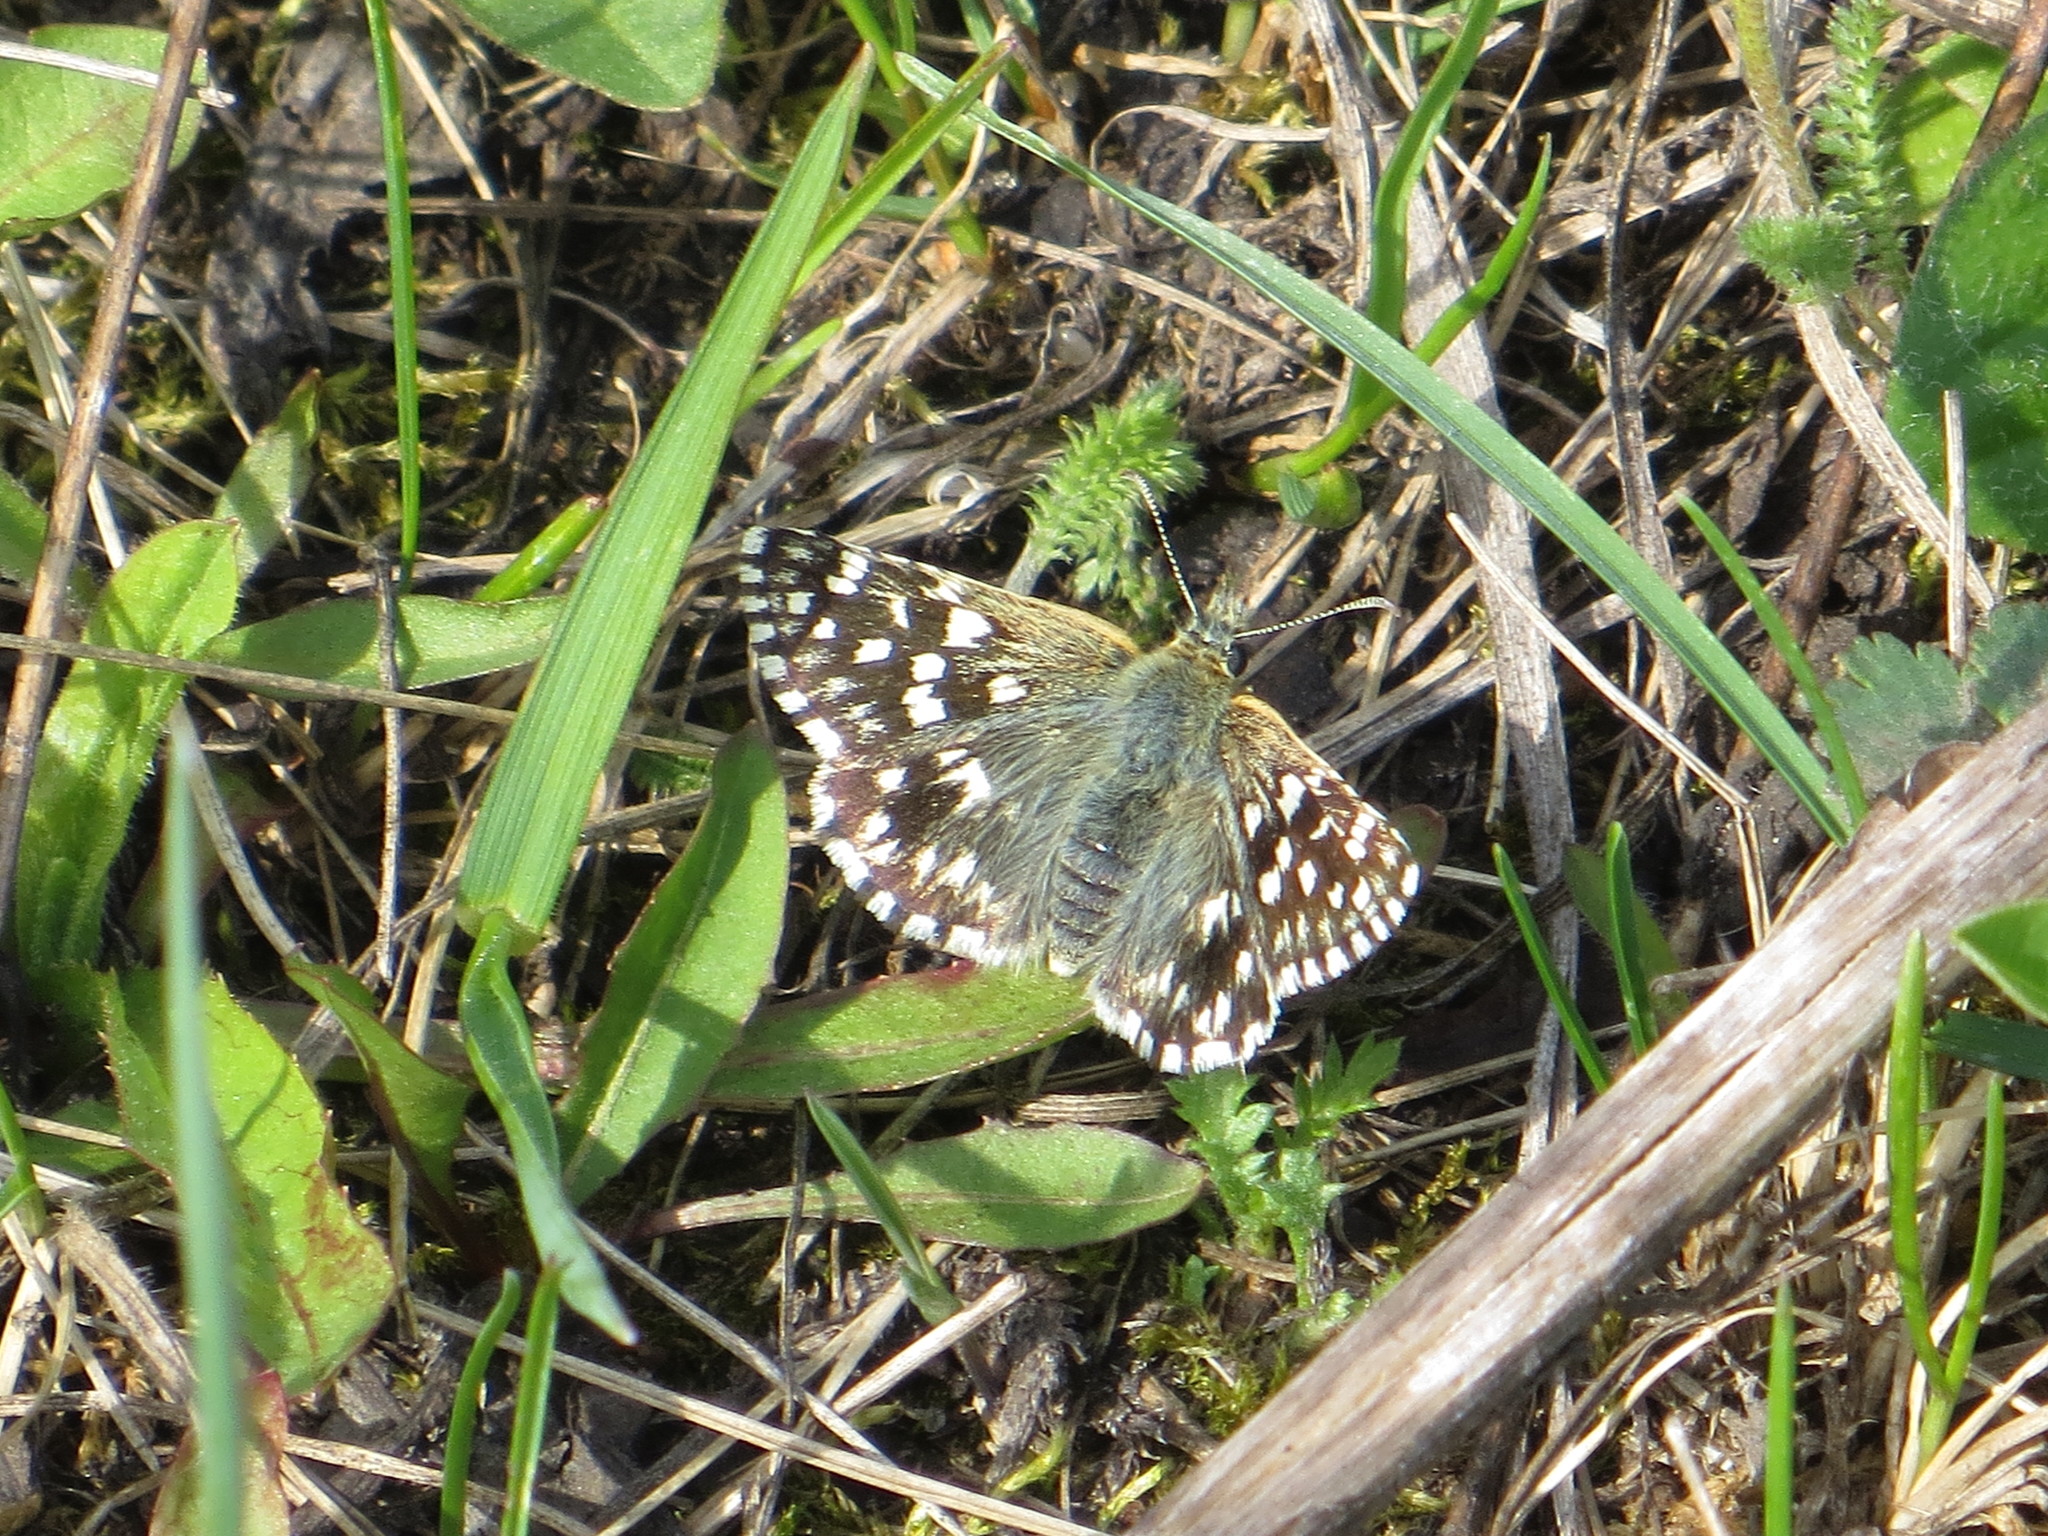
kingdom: Animalia
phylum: Arthropoda
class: Insecta
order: Lepidoptera
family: Hesperiidae
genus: Pyrgus
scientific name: Pyrgus malvae
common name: Grizzled skipper
